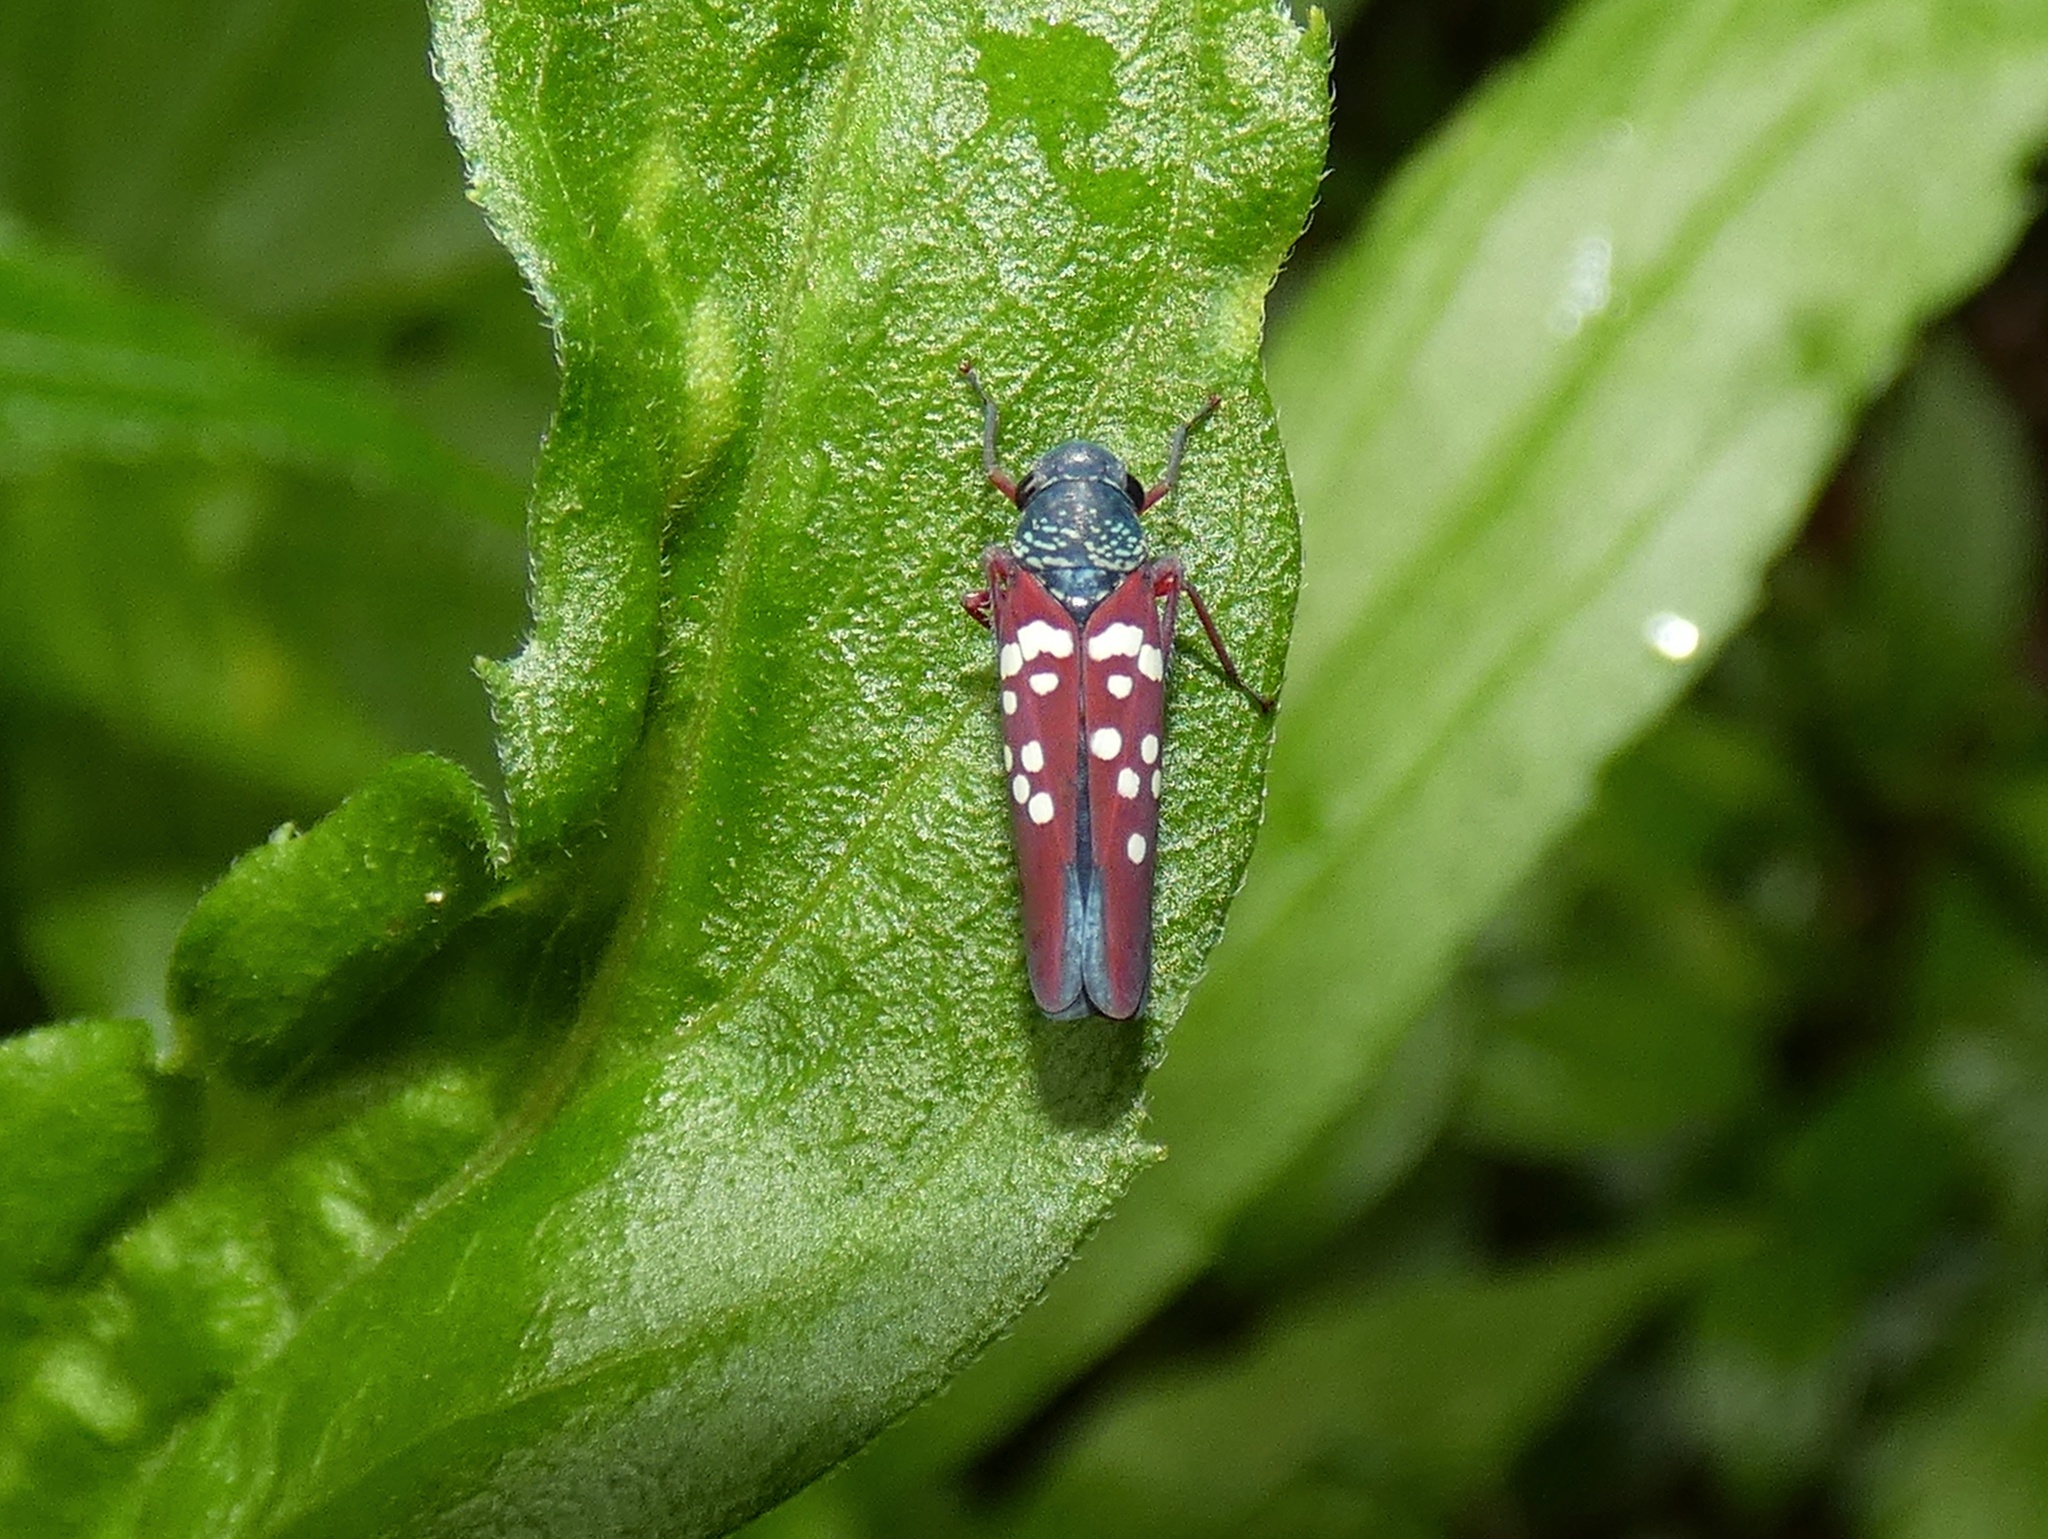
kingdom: Animalia
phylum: Arthropoda
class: Insecta
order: Hemiptera
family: Cicadellidae
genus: Graphocephala
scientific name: Graphocephala albomaculata
